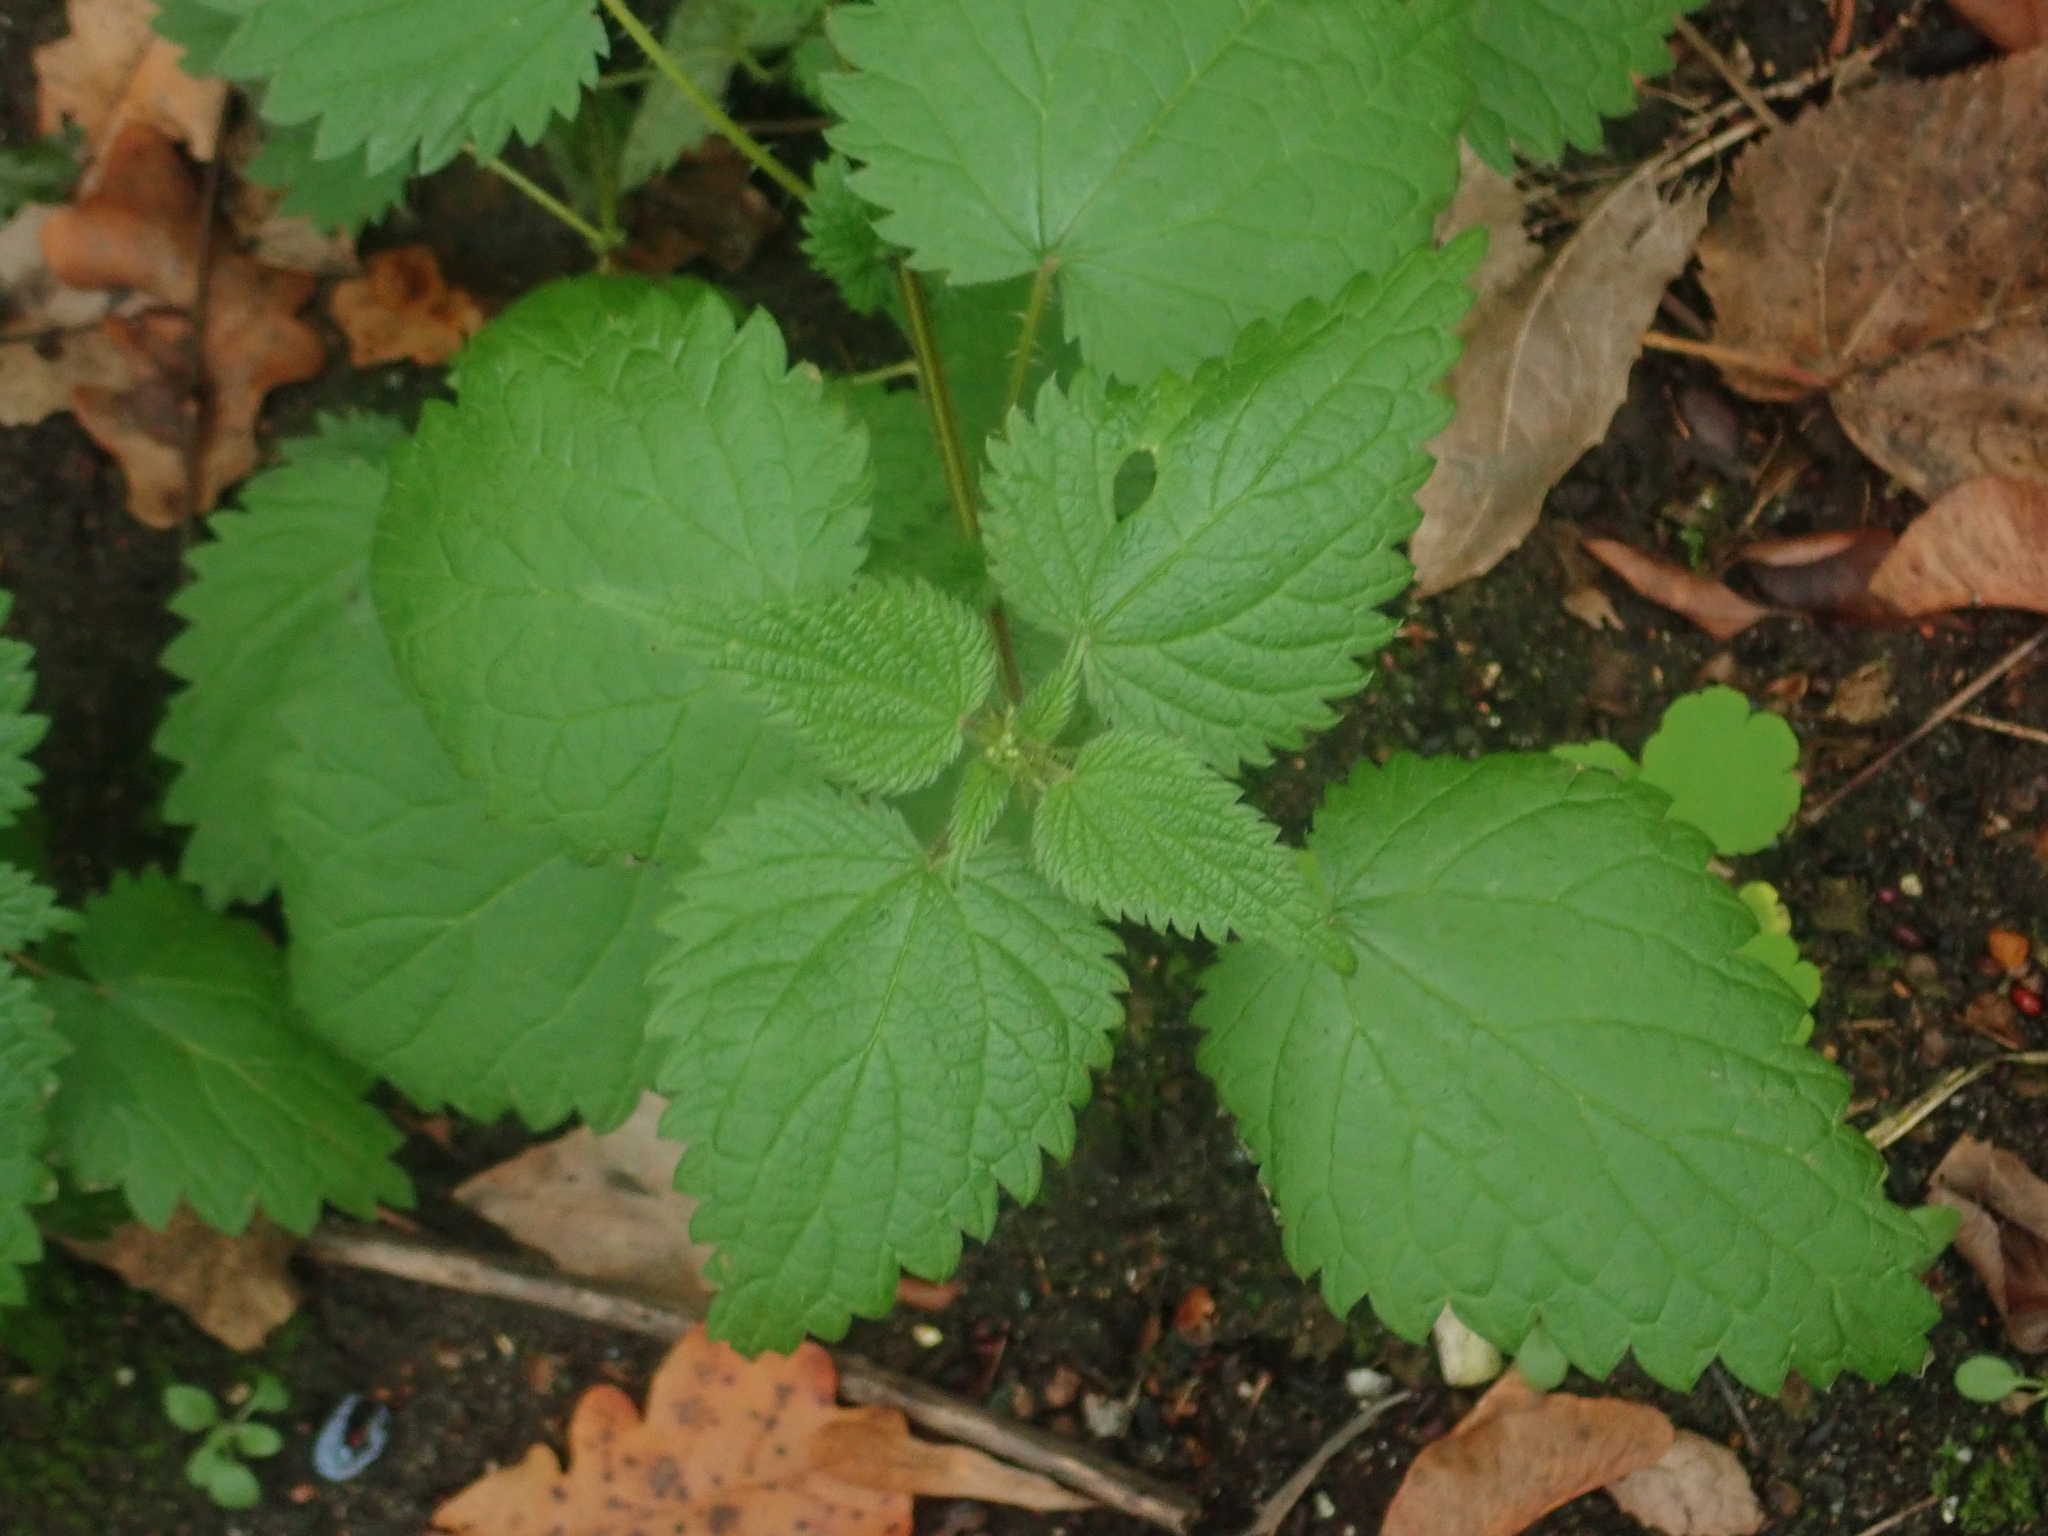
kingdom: Plantae
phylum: Tracheophyta
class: Magnoliopsida
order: Rosales
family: Urticaceae
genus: Urtica
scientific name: Urtica dioica
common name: Common nettle
